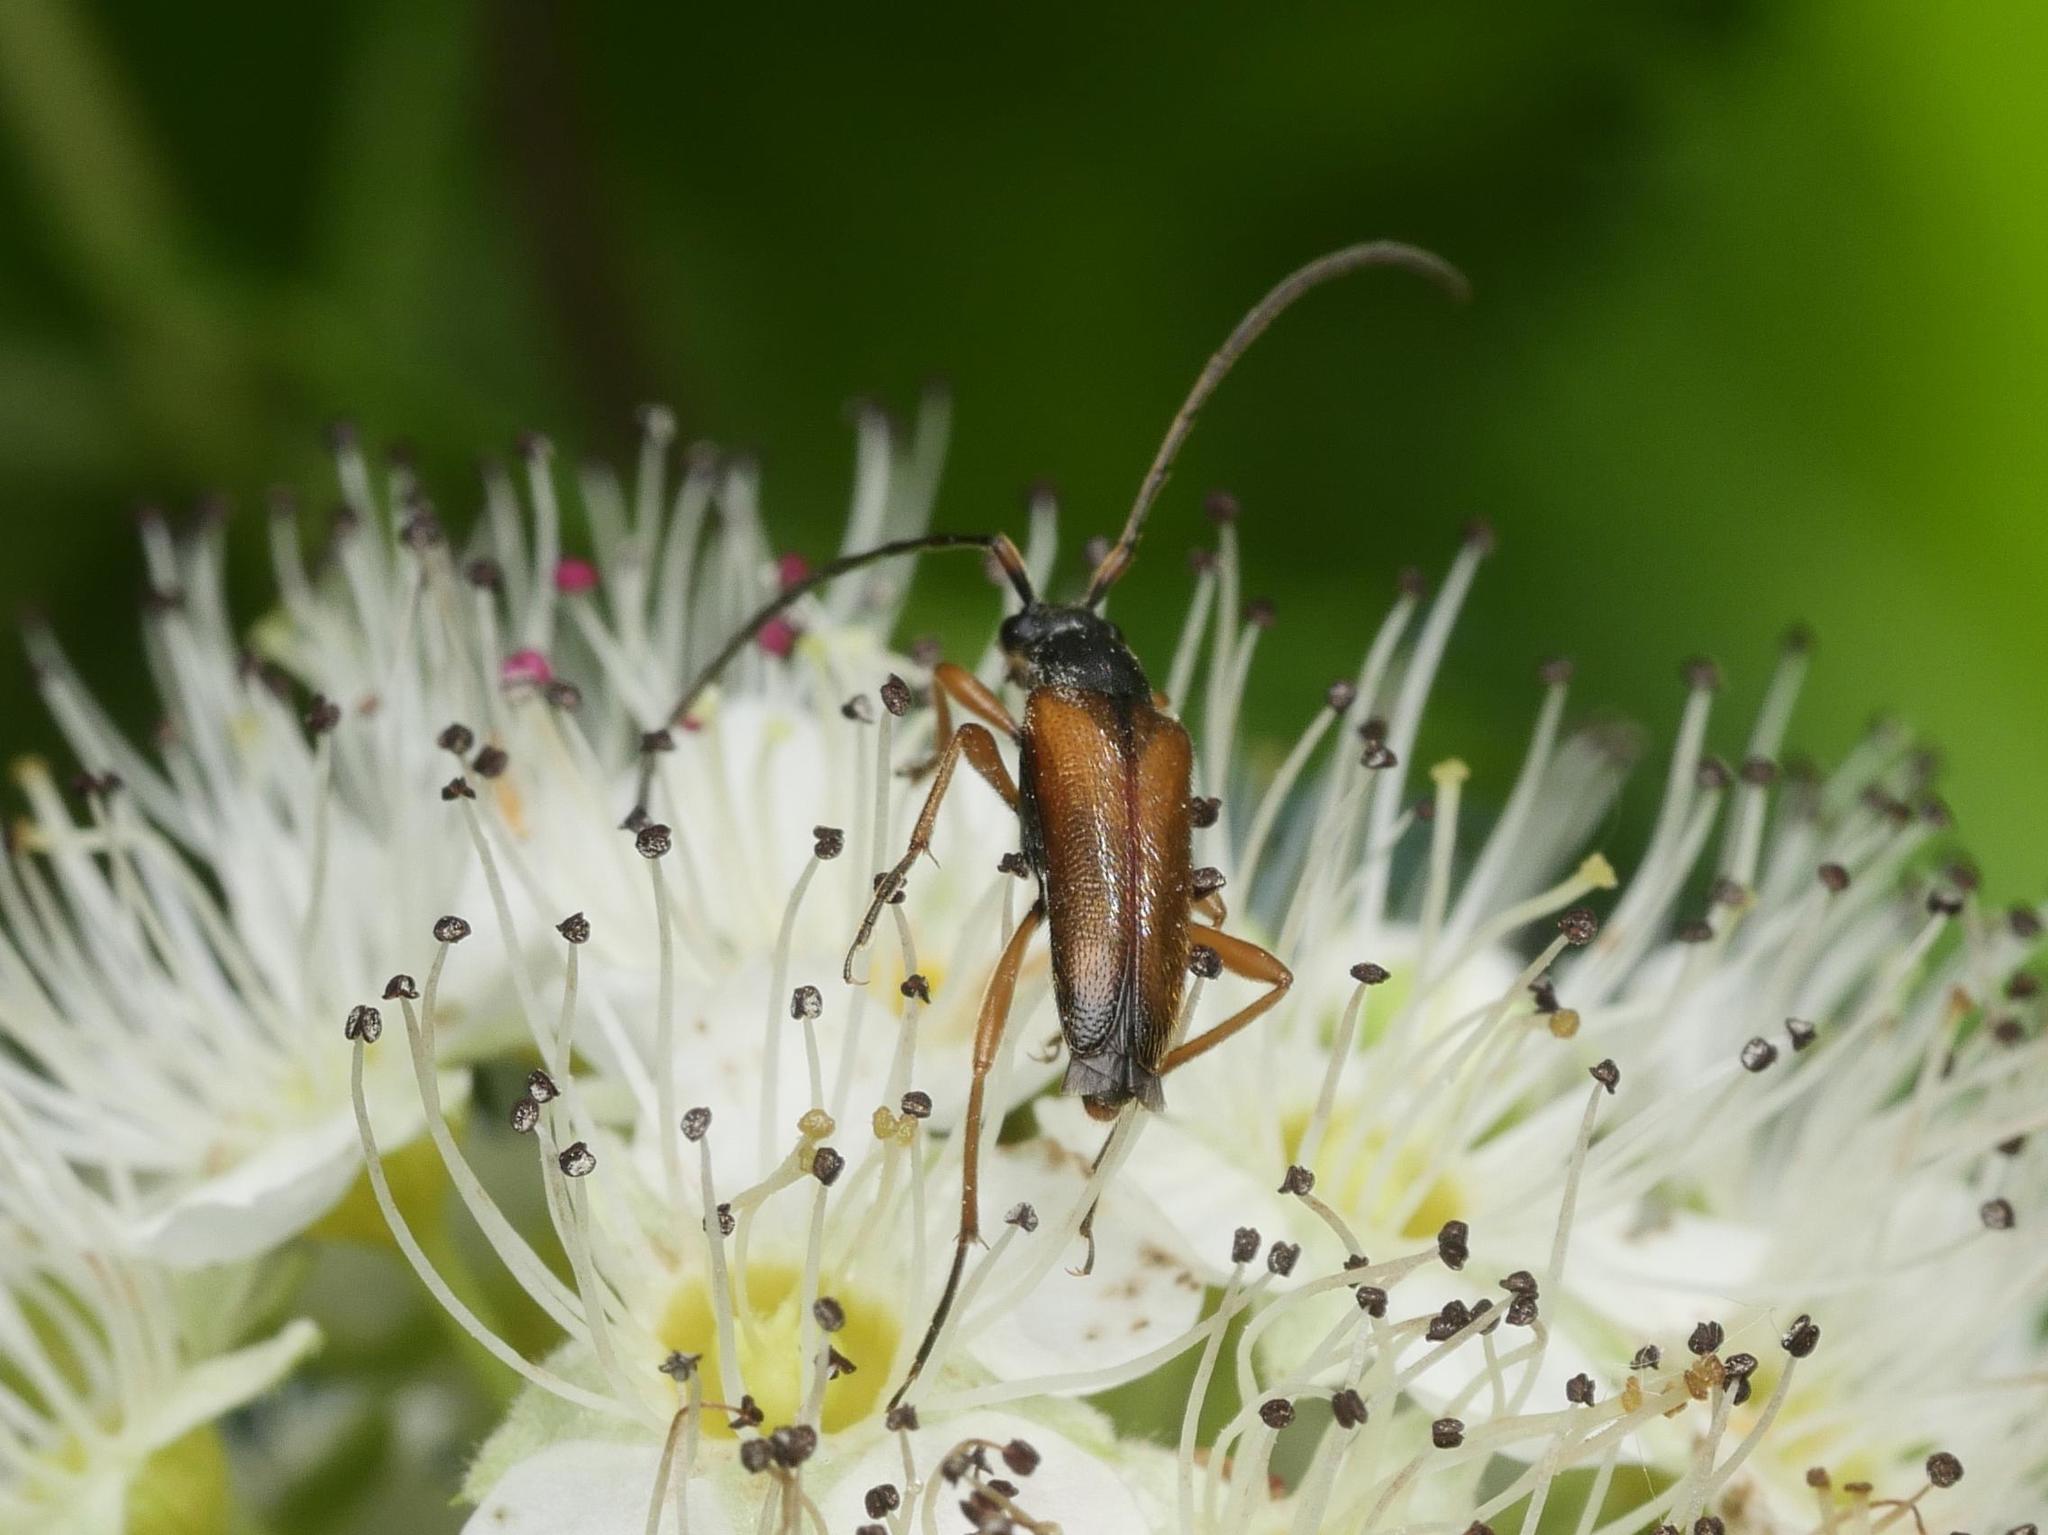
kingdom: Animalia
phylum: Arthropoda
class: Insecta
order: Coleoptera
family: Cerambycidae
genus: Alosterna
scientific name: Alosterna tabacicolor
